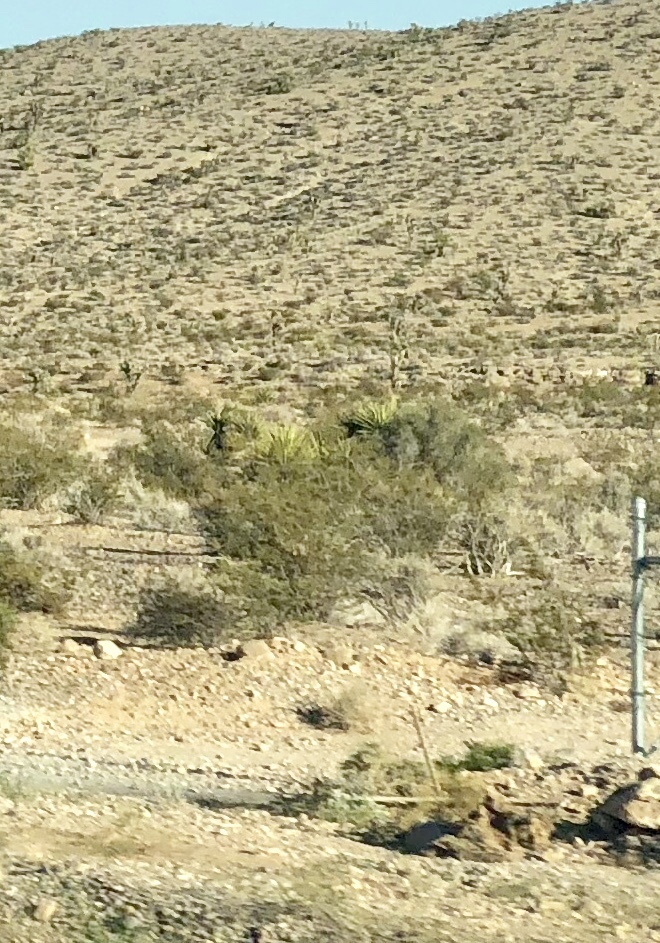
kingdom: Plantae
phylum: Tracheophyta
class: Magnoliopsida
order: Zygophyllales
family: Zygophyllaceae
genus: Larrea
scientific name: Larrea tridentata
